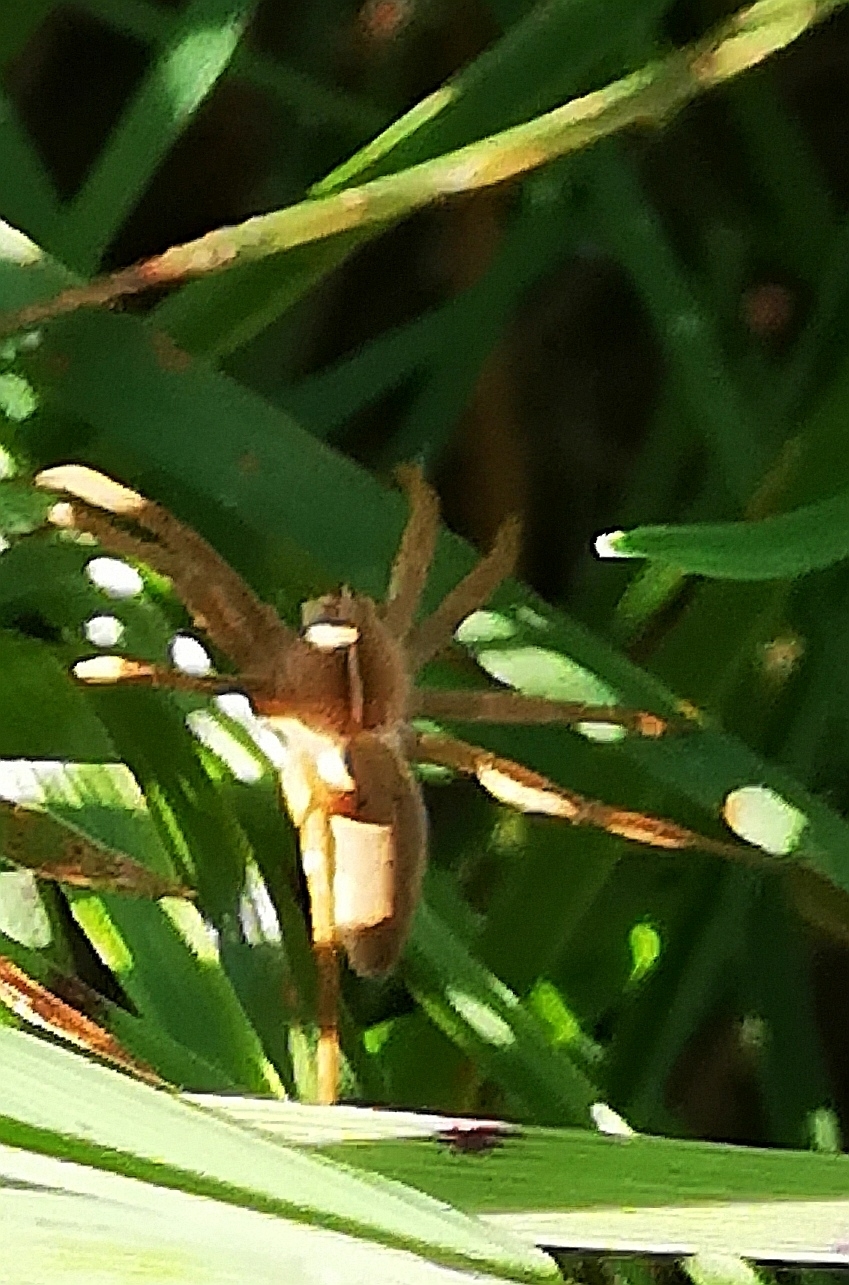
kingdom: Animalia
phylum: Arthropoda
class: Arachnida
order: Araneae
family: Pisauridae
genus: Pisaura
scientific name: Pisaura mirabilis
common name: Tent spider
